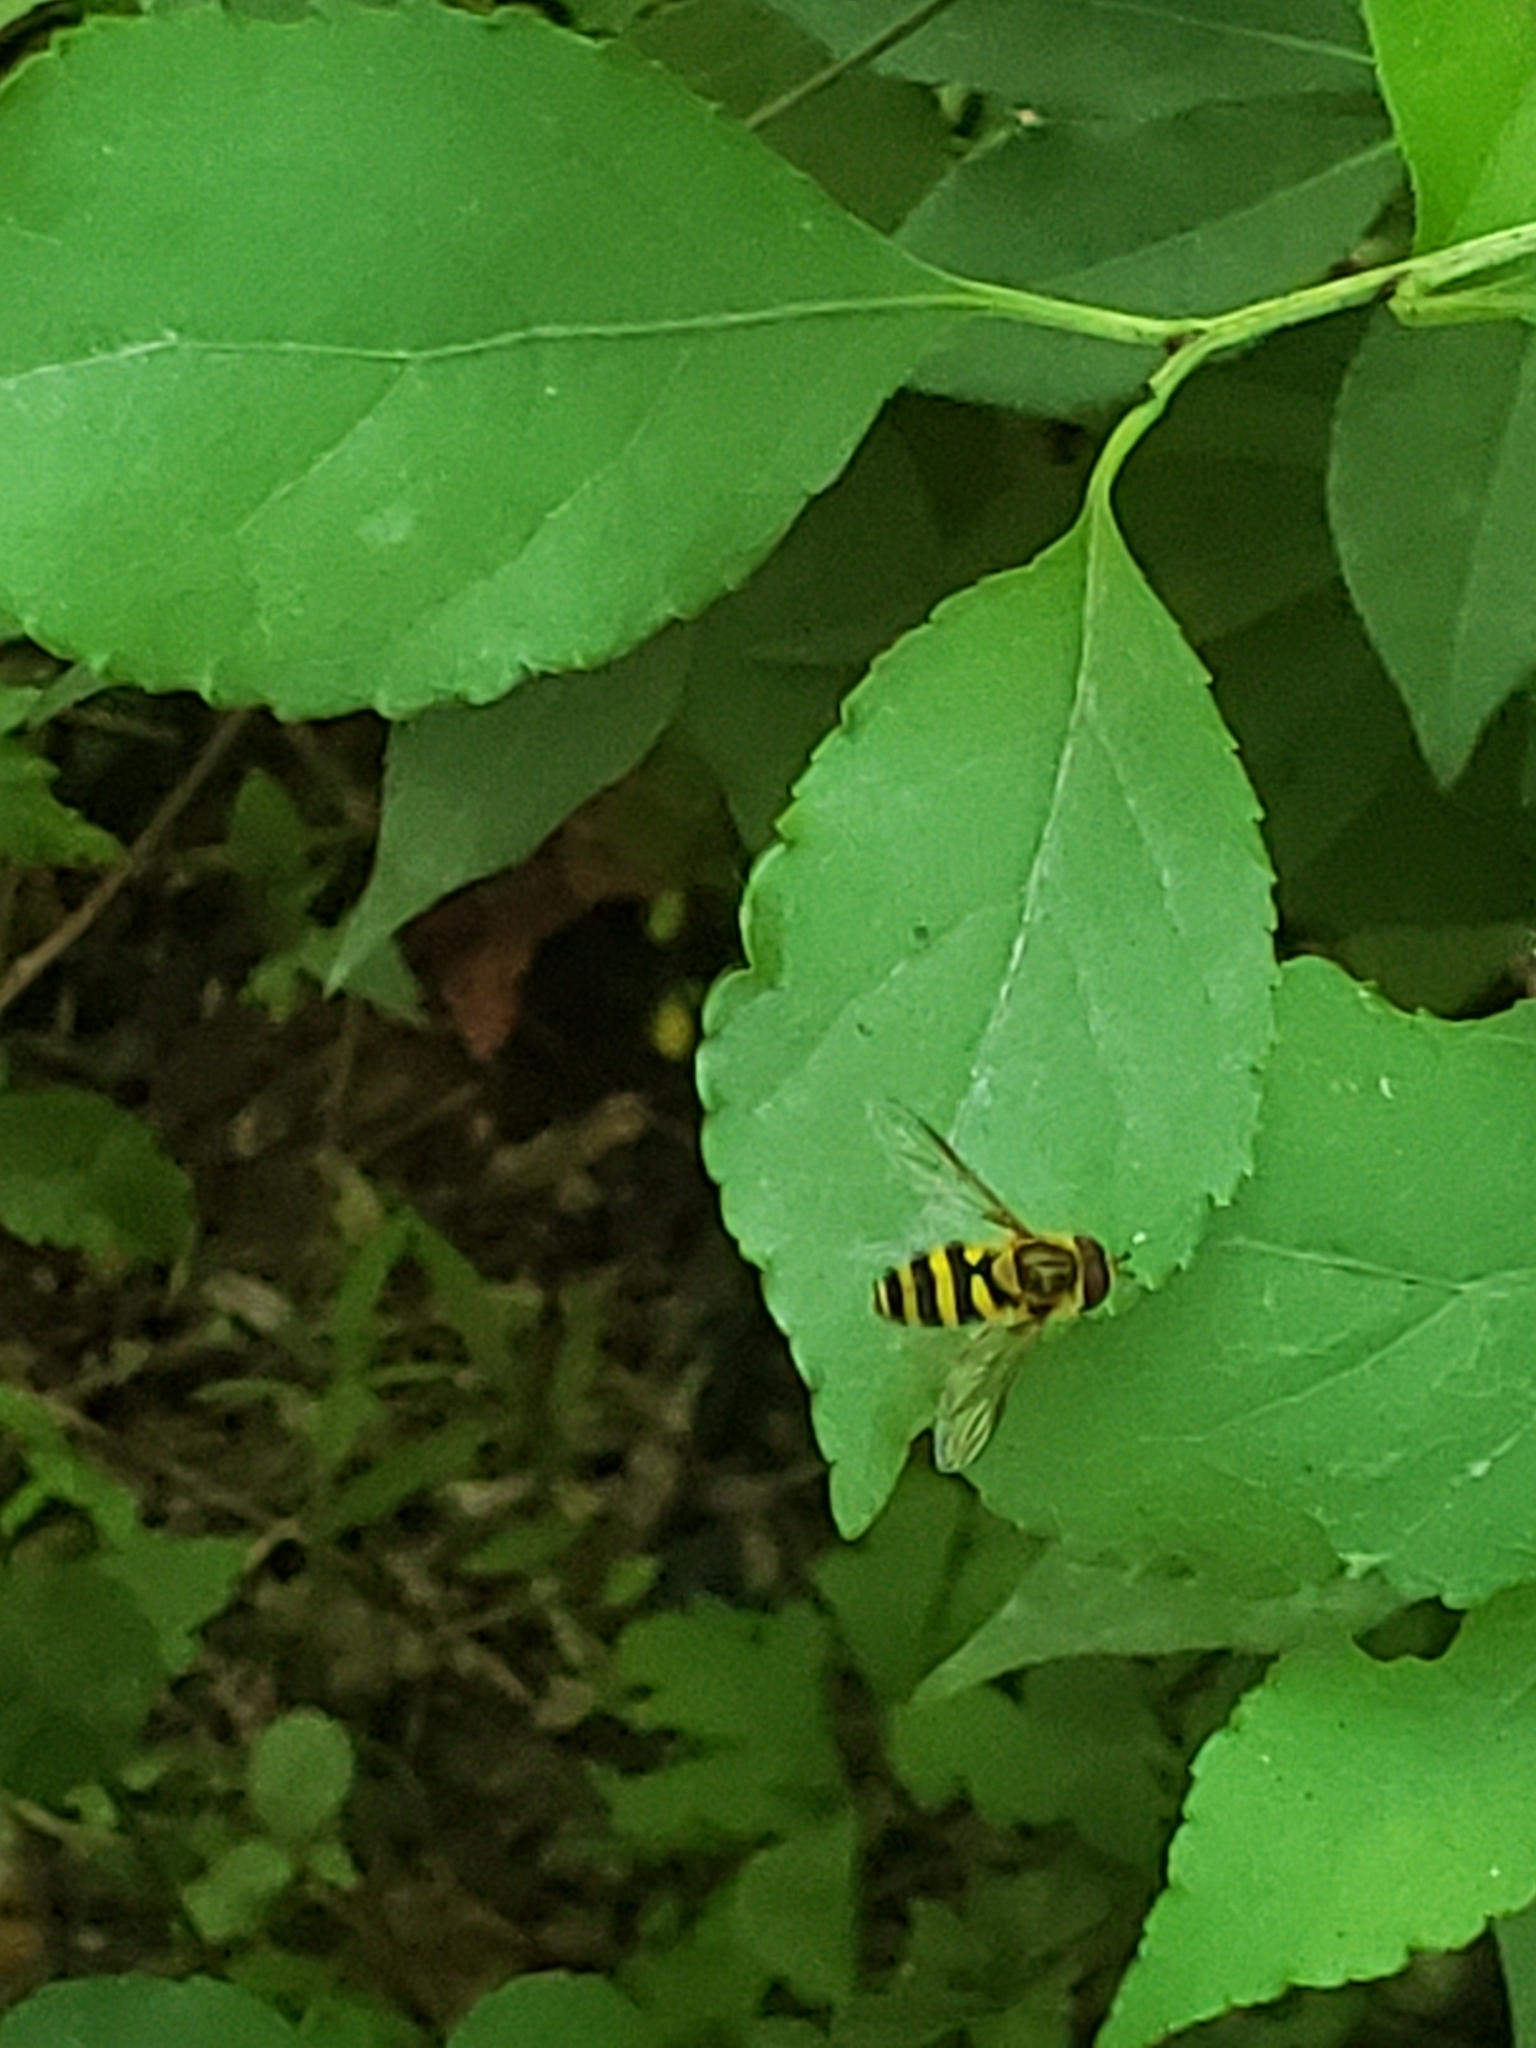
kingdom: Animalia
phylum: Arthropoda
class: Insecta
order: Diptera
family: Syrphidae
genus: Syrphus
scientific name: Syrphus ribesii
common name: Common flower fly
